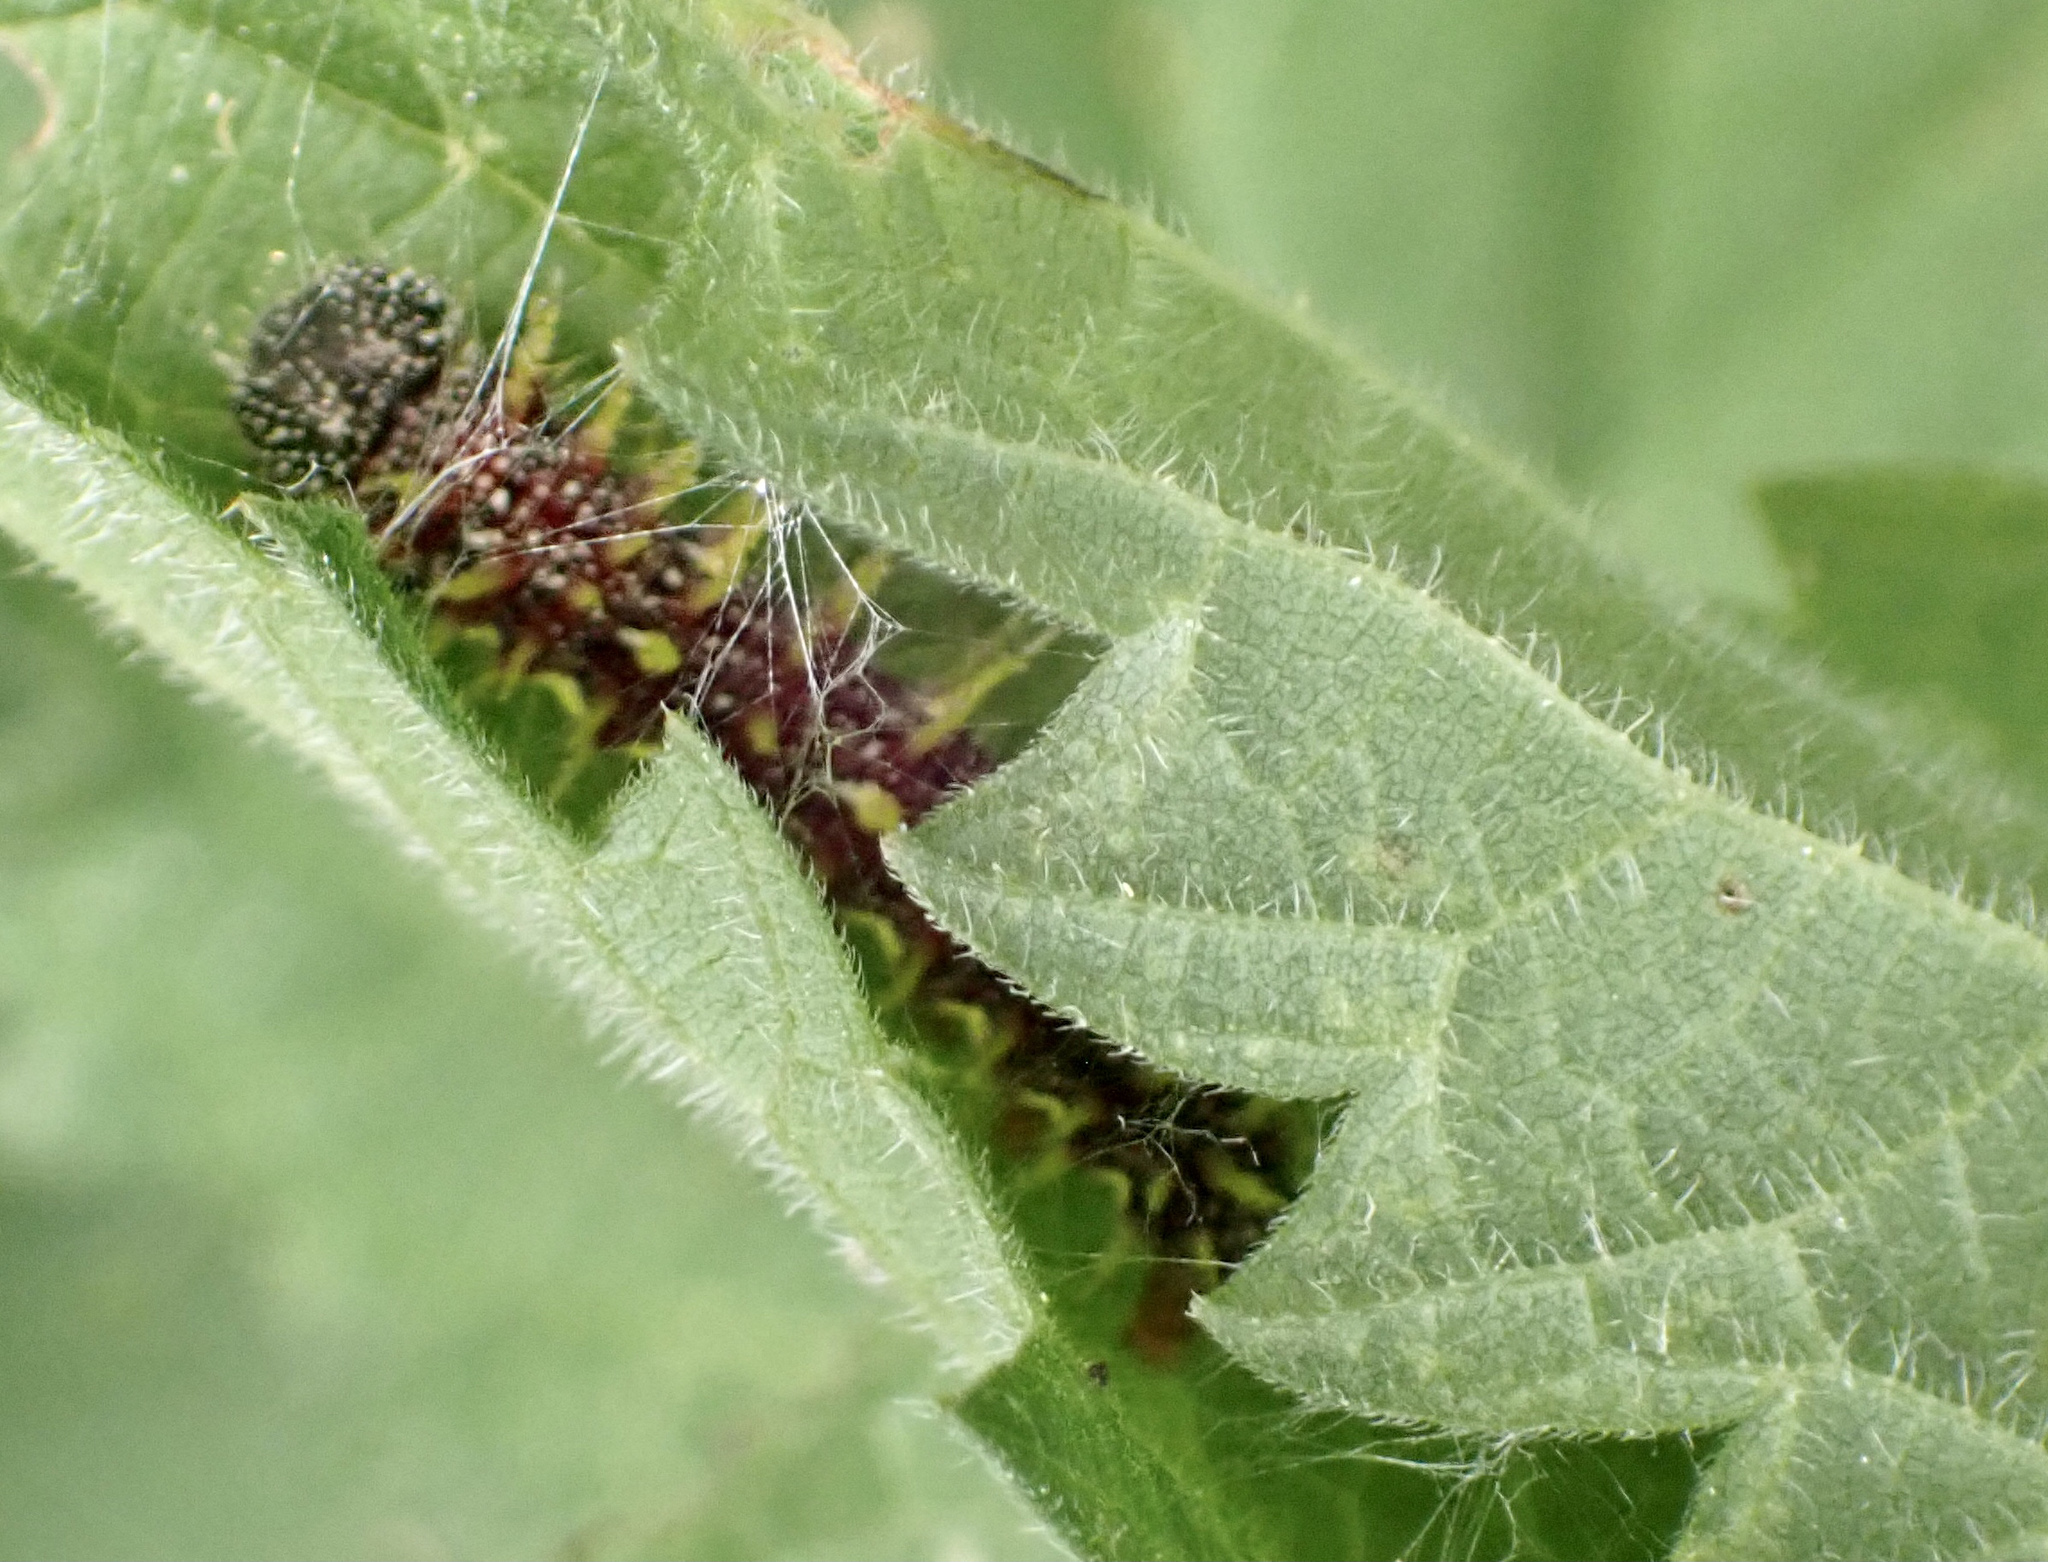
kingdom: Animalia
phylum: Arthropoda
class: Insecta
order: Lepidoptera
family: Nymphalidae
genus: Vanessa
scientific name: Vanessa atalanta
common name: Red admiral
